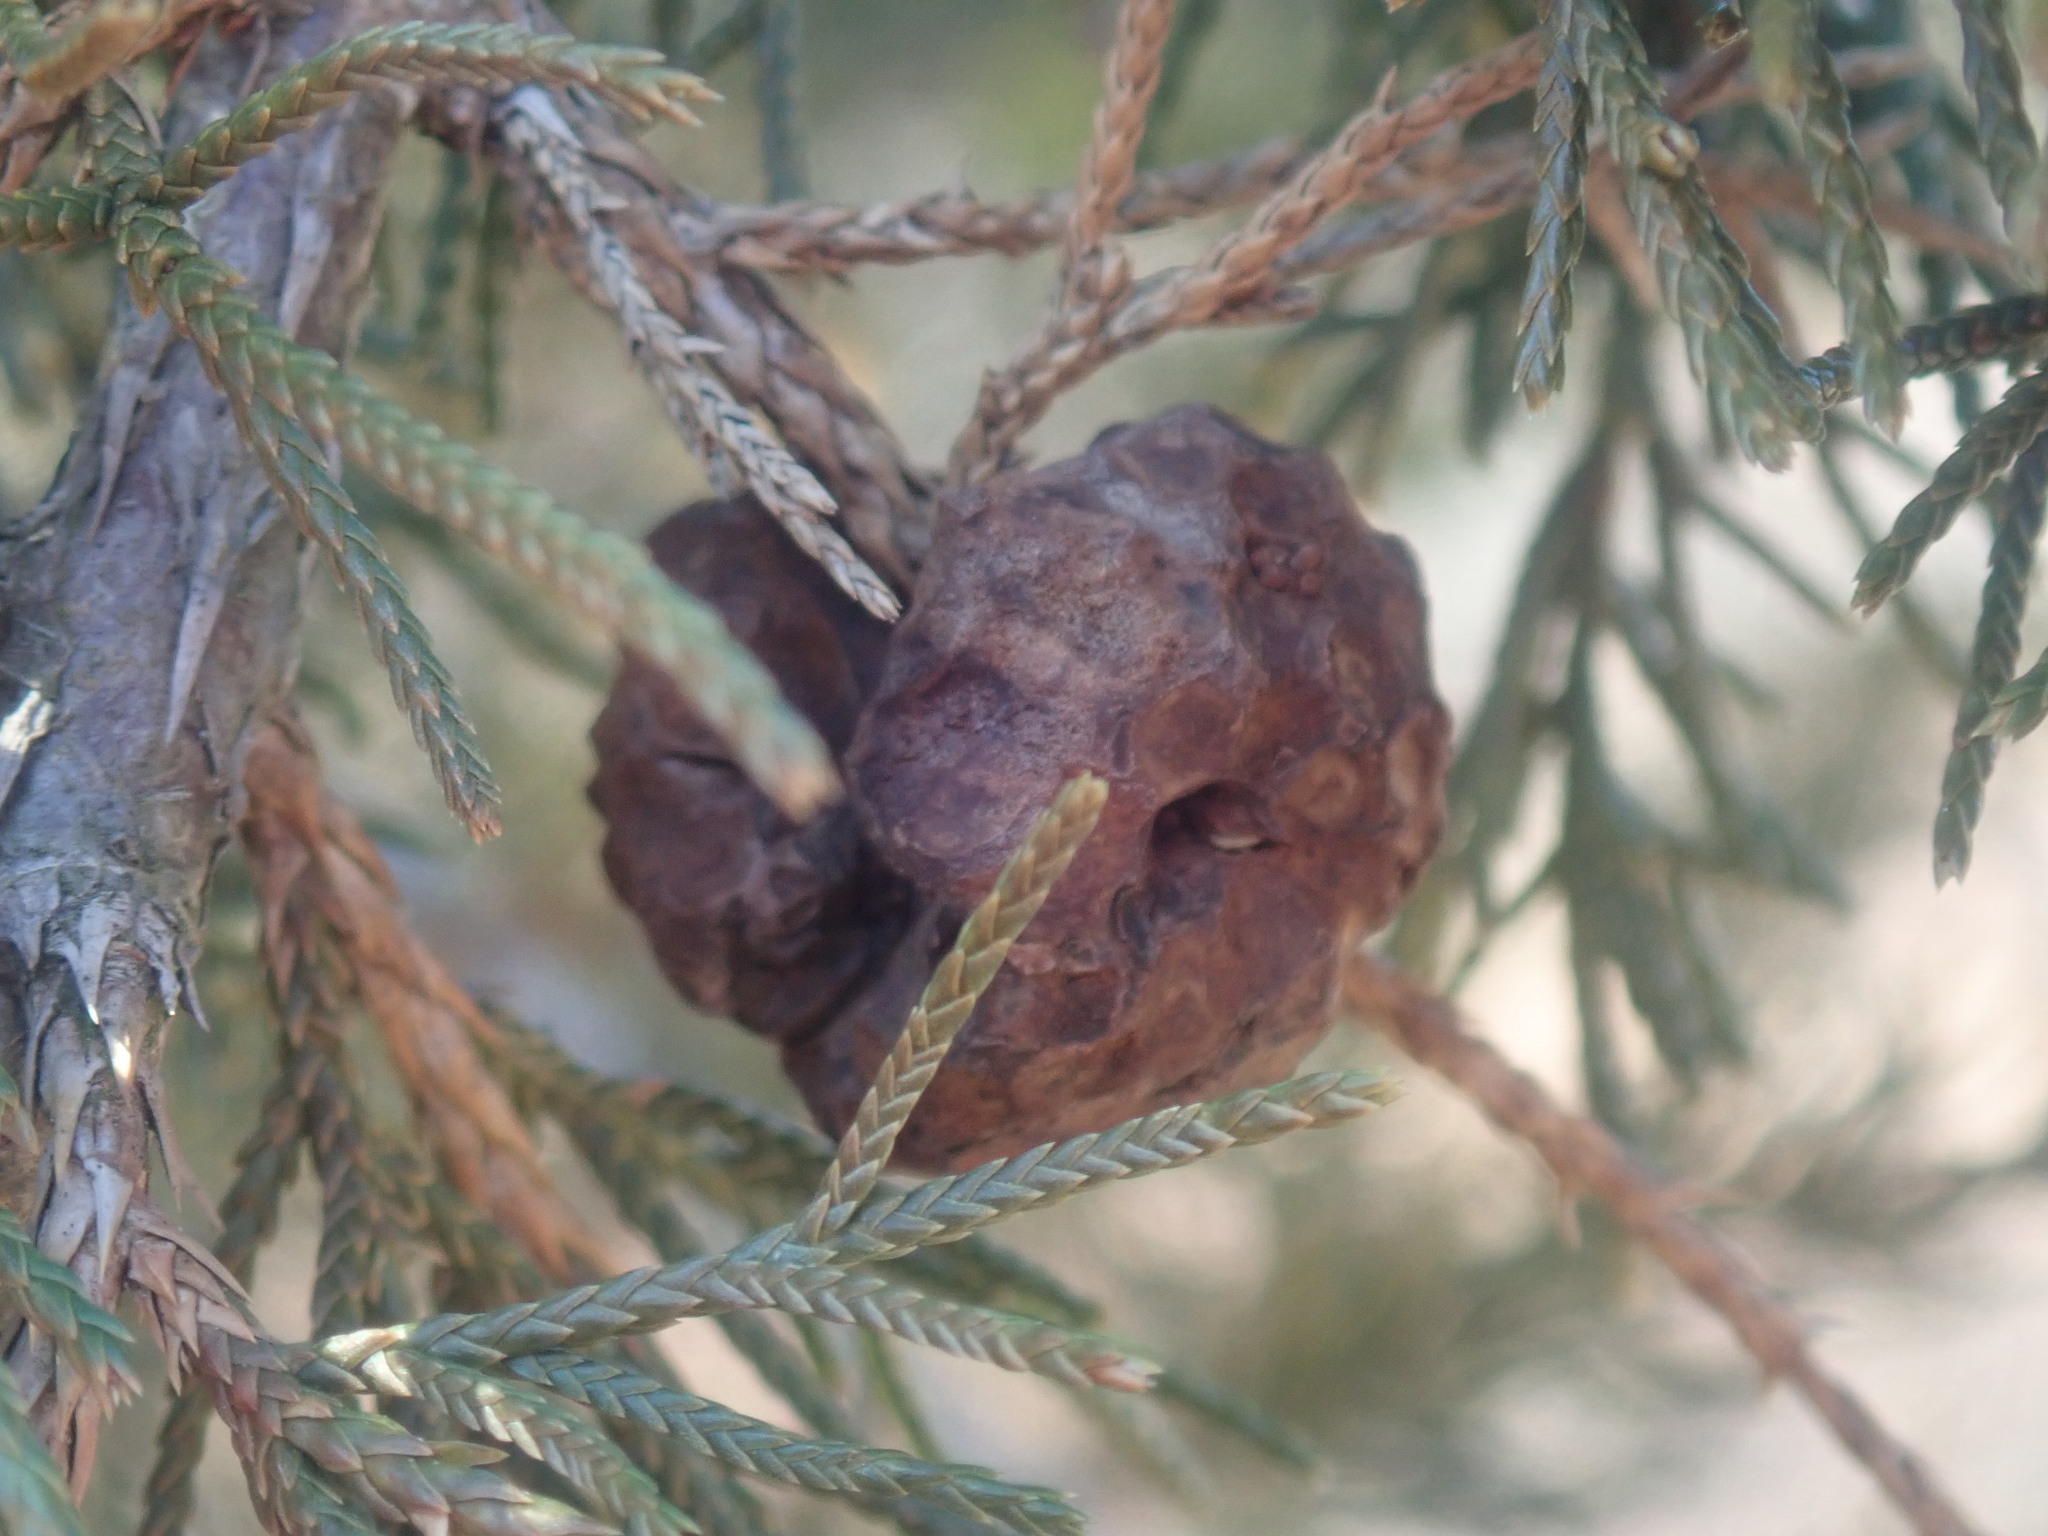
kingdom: Fungi
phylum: Basidiomycota
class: Pucciniomycetes
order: Pucciniales
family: Gymnosporangiaceae
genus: Gymnosporangium
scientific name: Gymnosporangium juniperi-virginianae
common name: Juniper-apple rust
